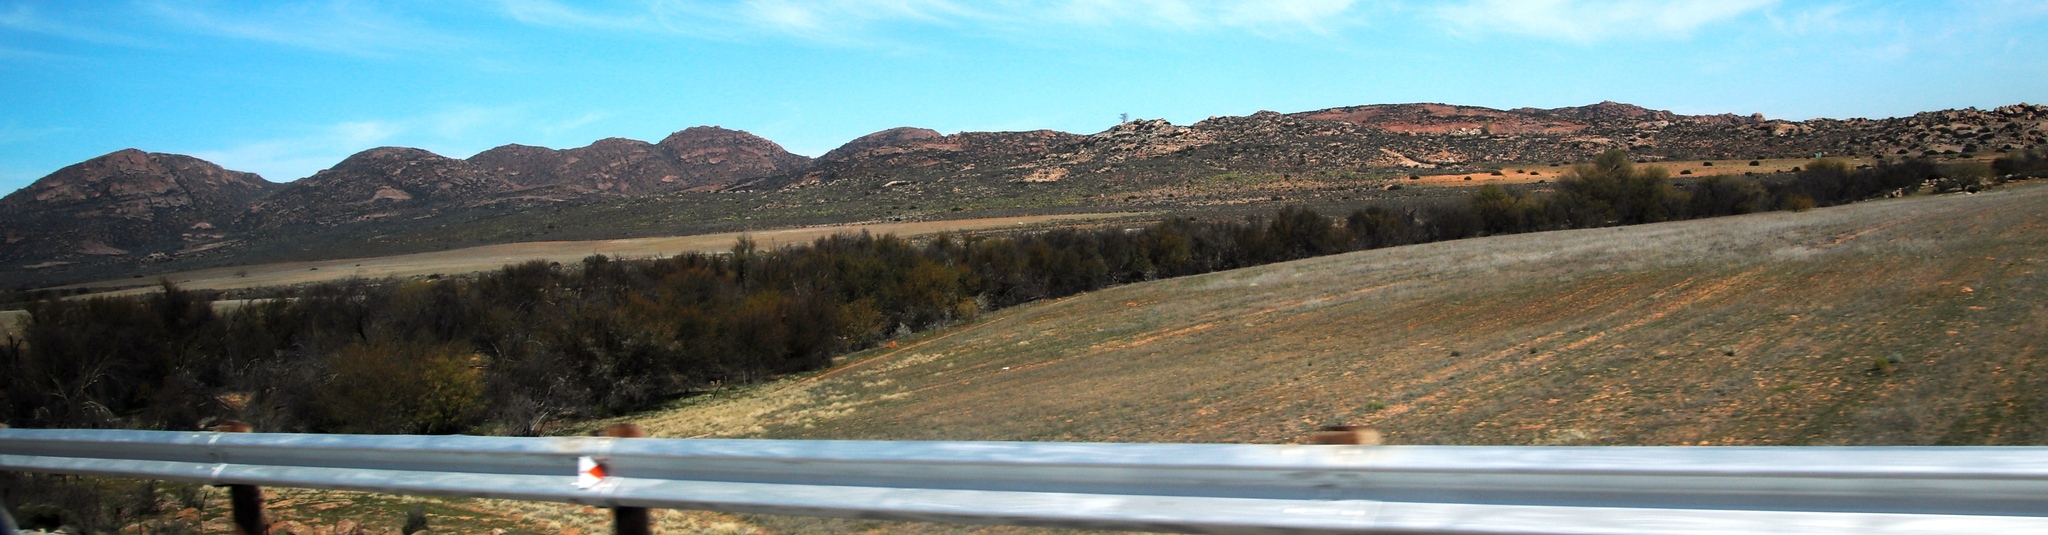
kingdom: Plantae
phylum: Tracheophyta
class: Magnoliopsida
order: Fabales
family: Fabaceae
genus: Vachellia
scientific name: Vachellia karroo
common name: Sweet thorn
